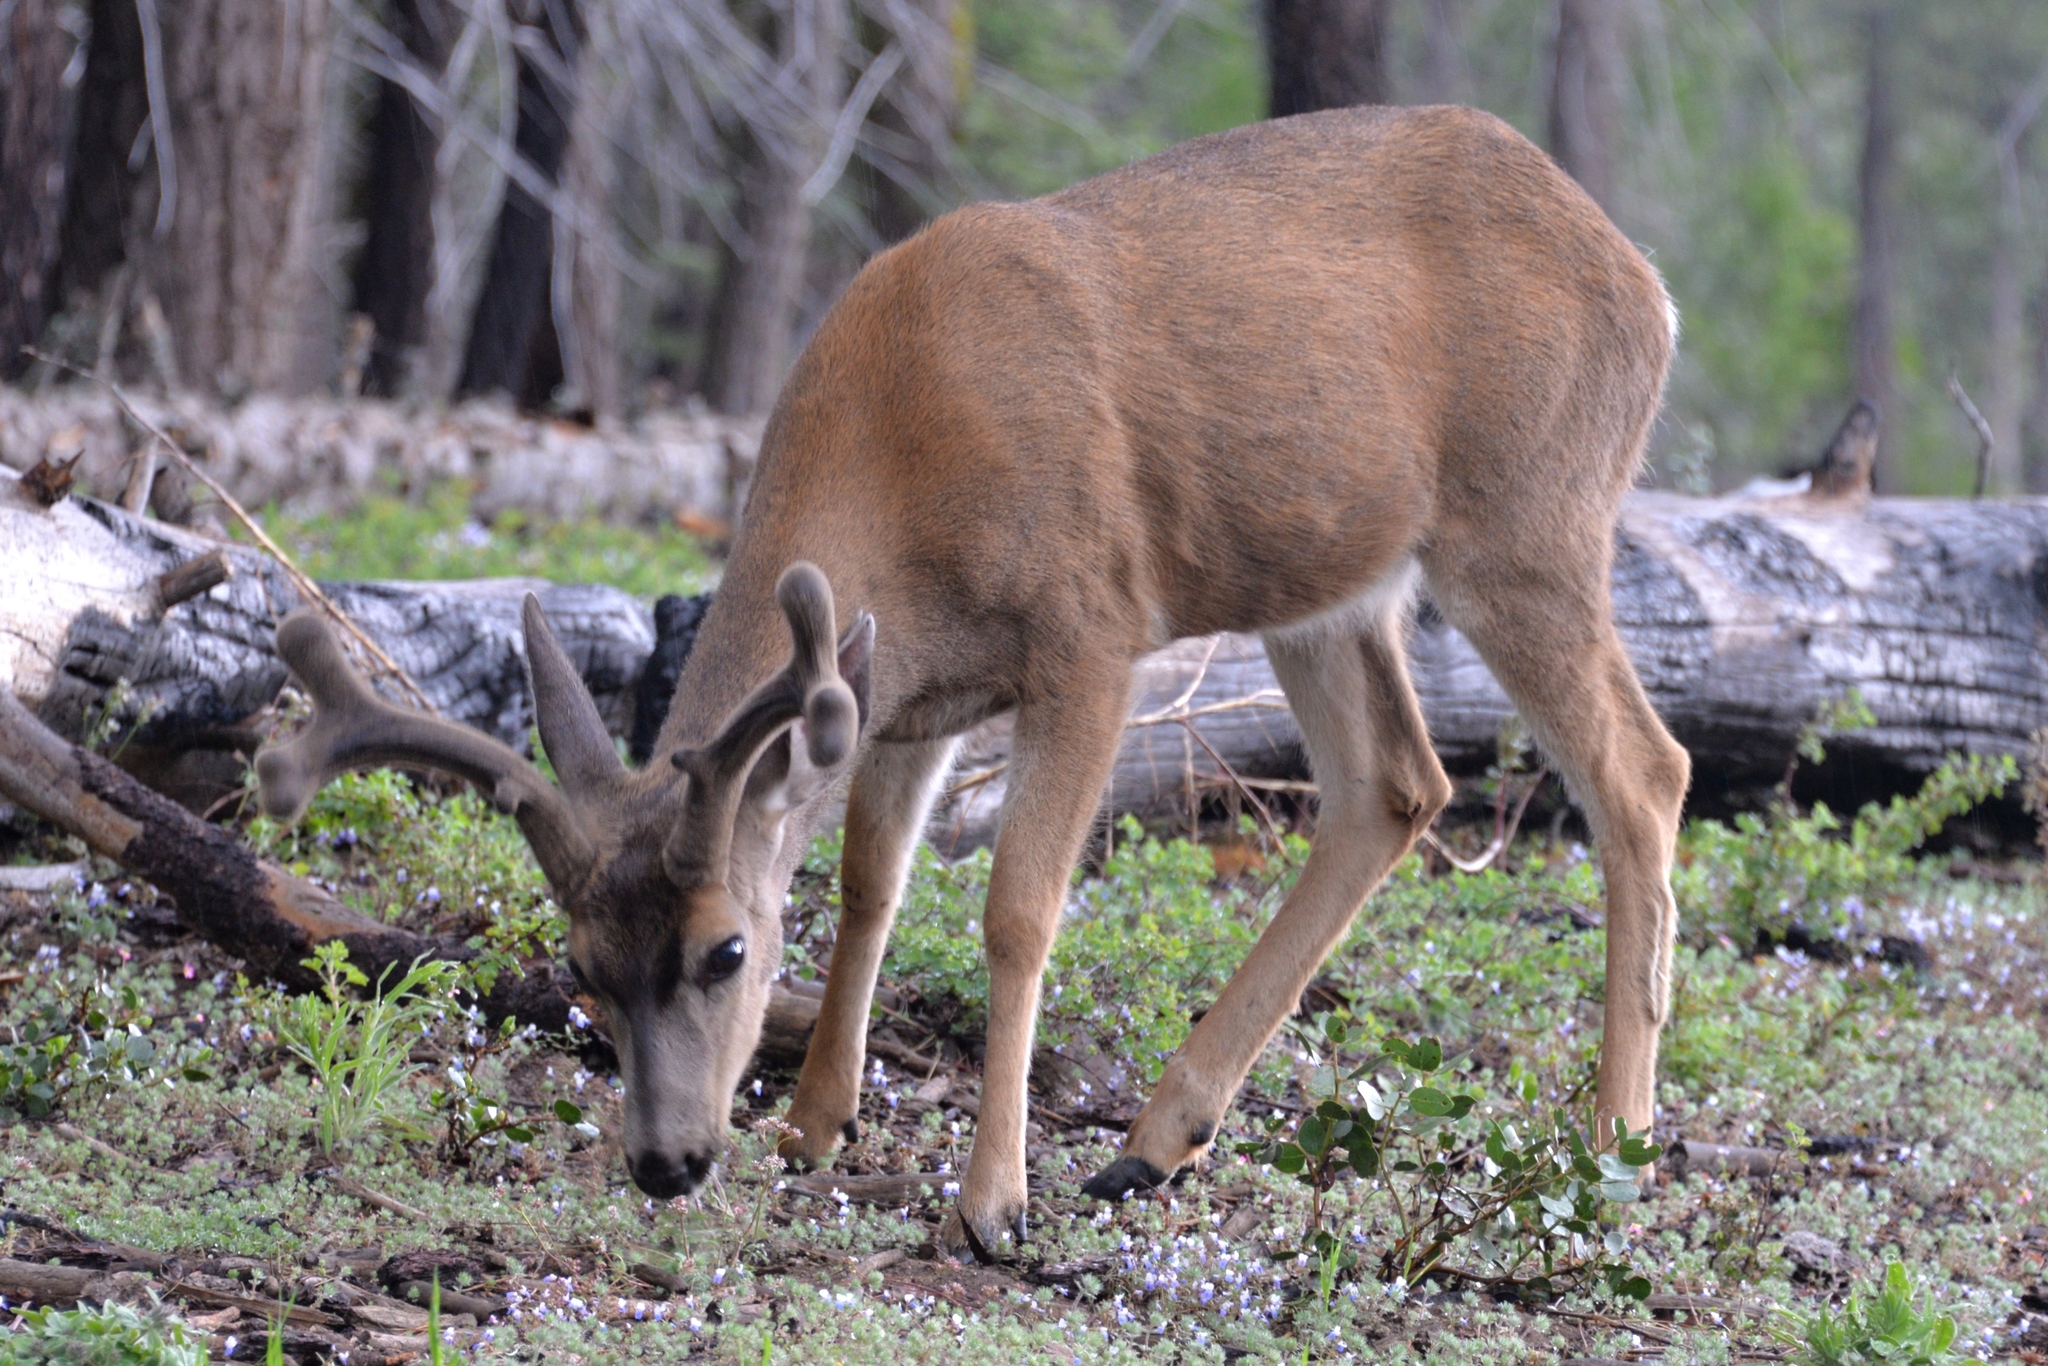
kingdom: Animalia
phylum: Chordata
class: Mammalia
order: Artiodactyla
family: Cervidae
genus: Odocoileus
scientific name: Odocoileus hemionus
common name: Mule deer
